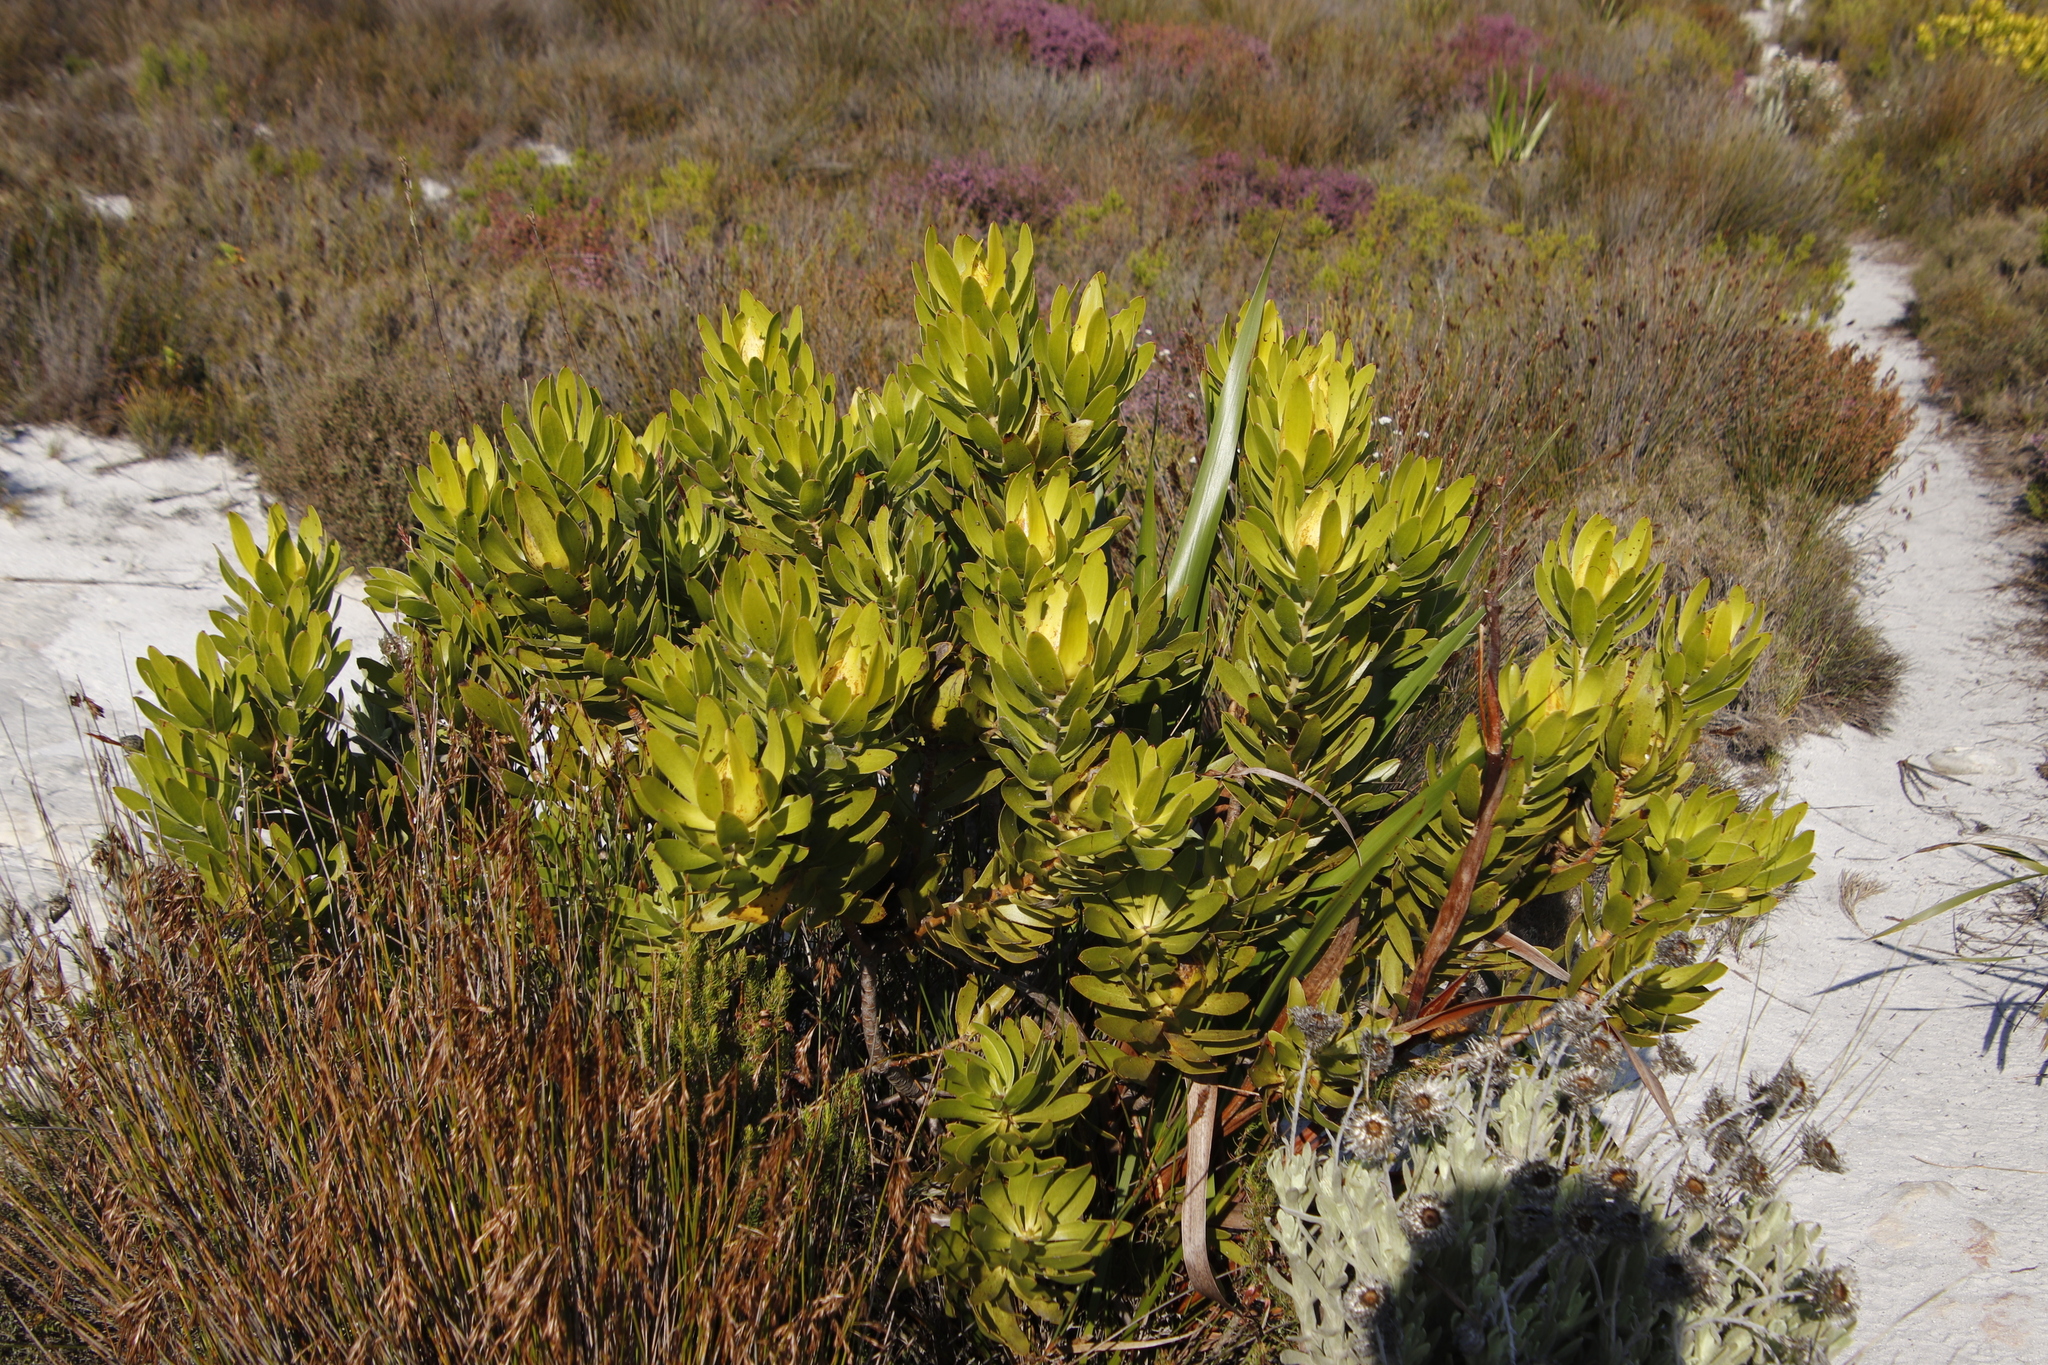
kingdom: Plantae
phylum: Tracheophyta
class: Magnoliopsida
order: Proteales
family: Proteaceae
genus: Leucadendron
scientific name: Leucadendron laureolum
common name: Golden sunshinebush
